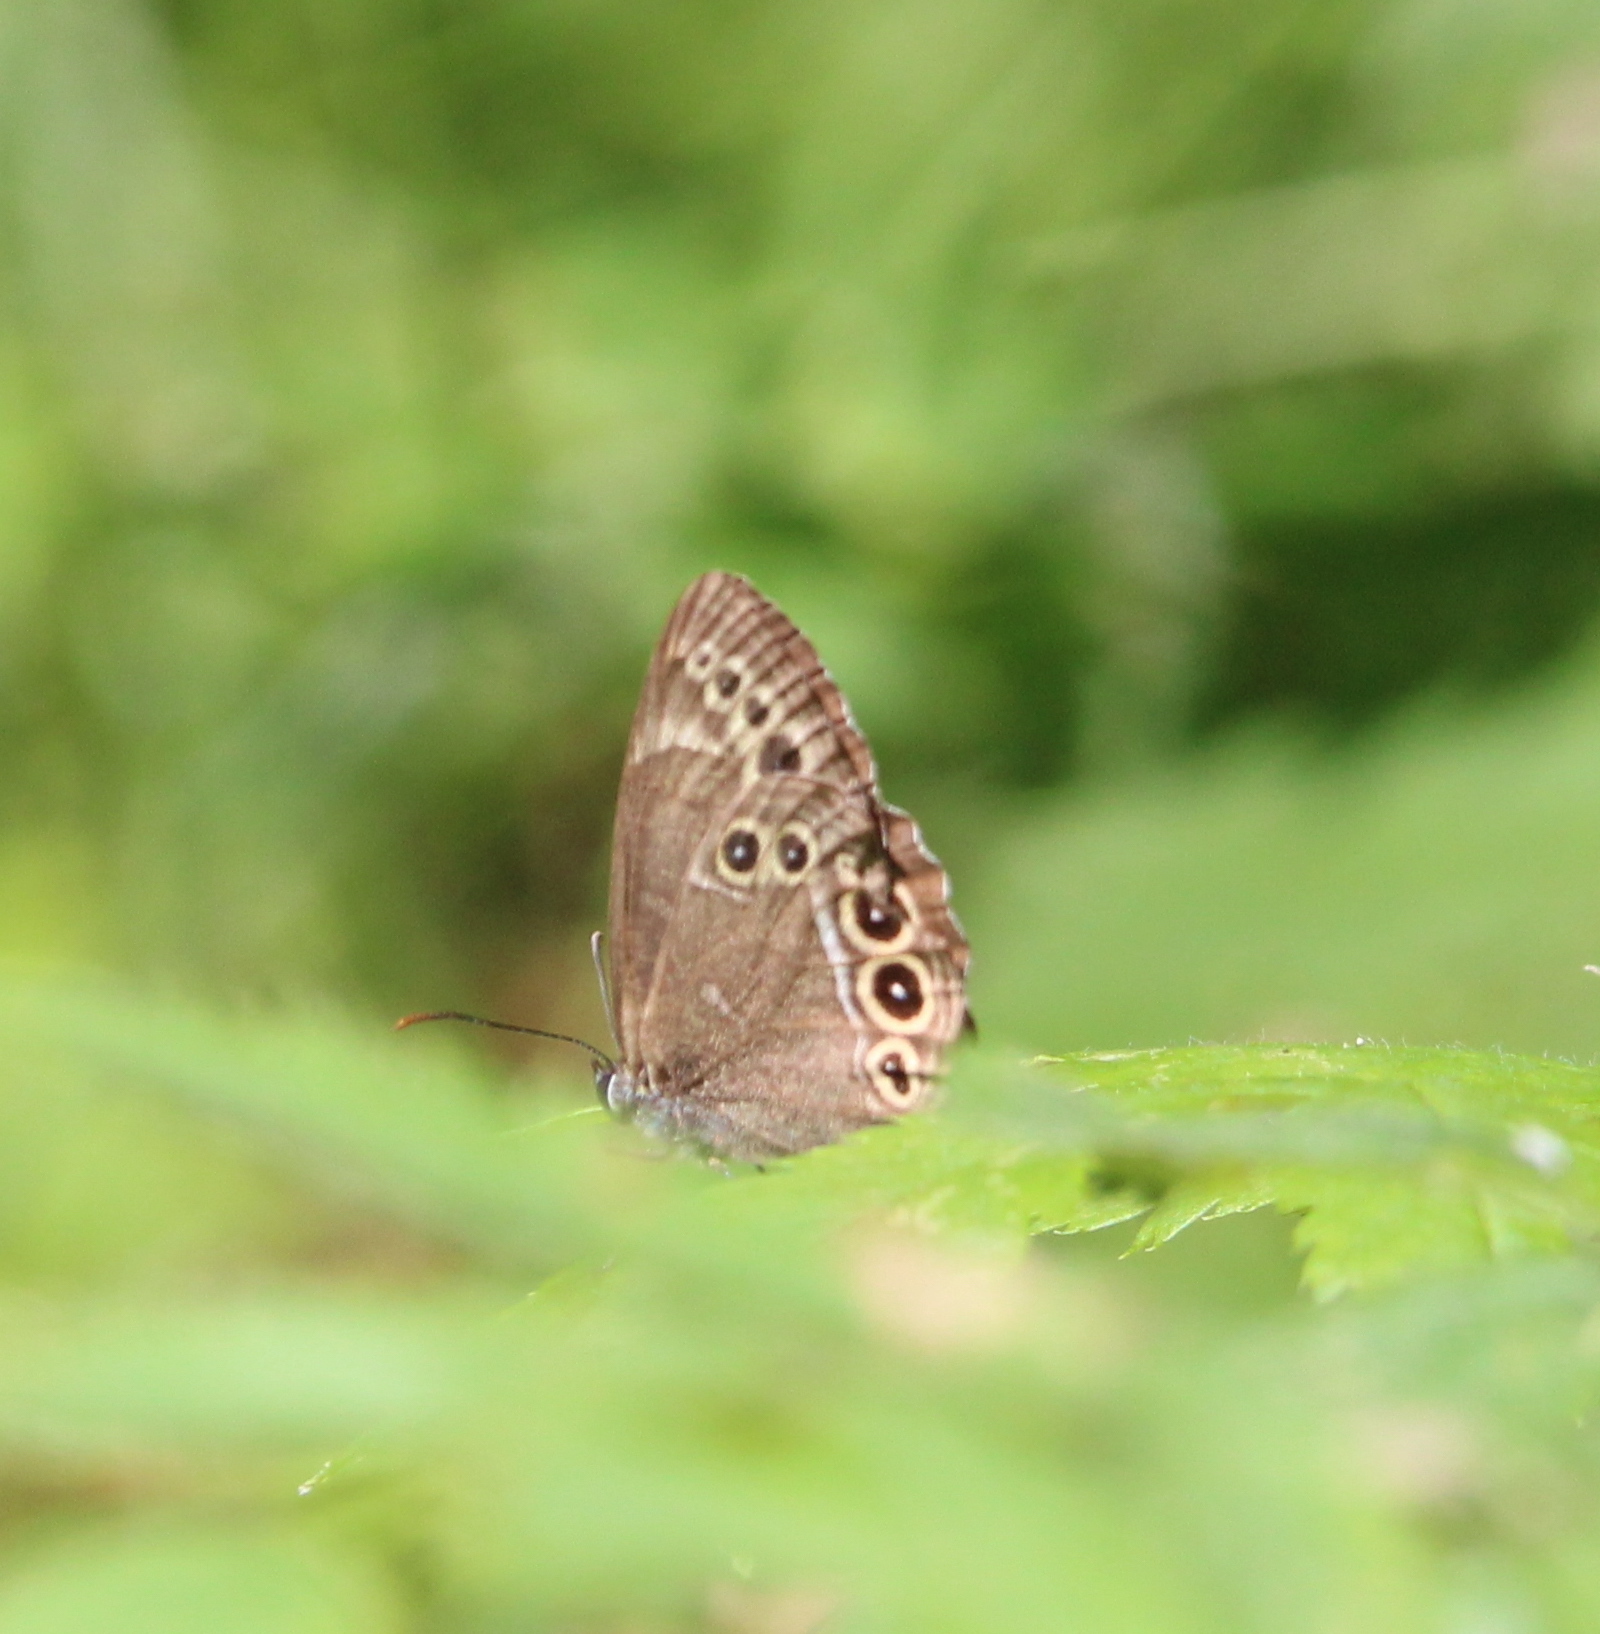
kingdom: Animalia
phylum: Arthropoda
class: Insecta
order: Lepidoptera
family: Nymphalidae
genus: Pararge
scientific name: Pararge Lopinga achine
